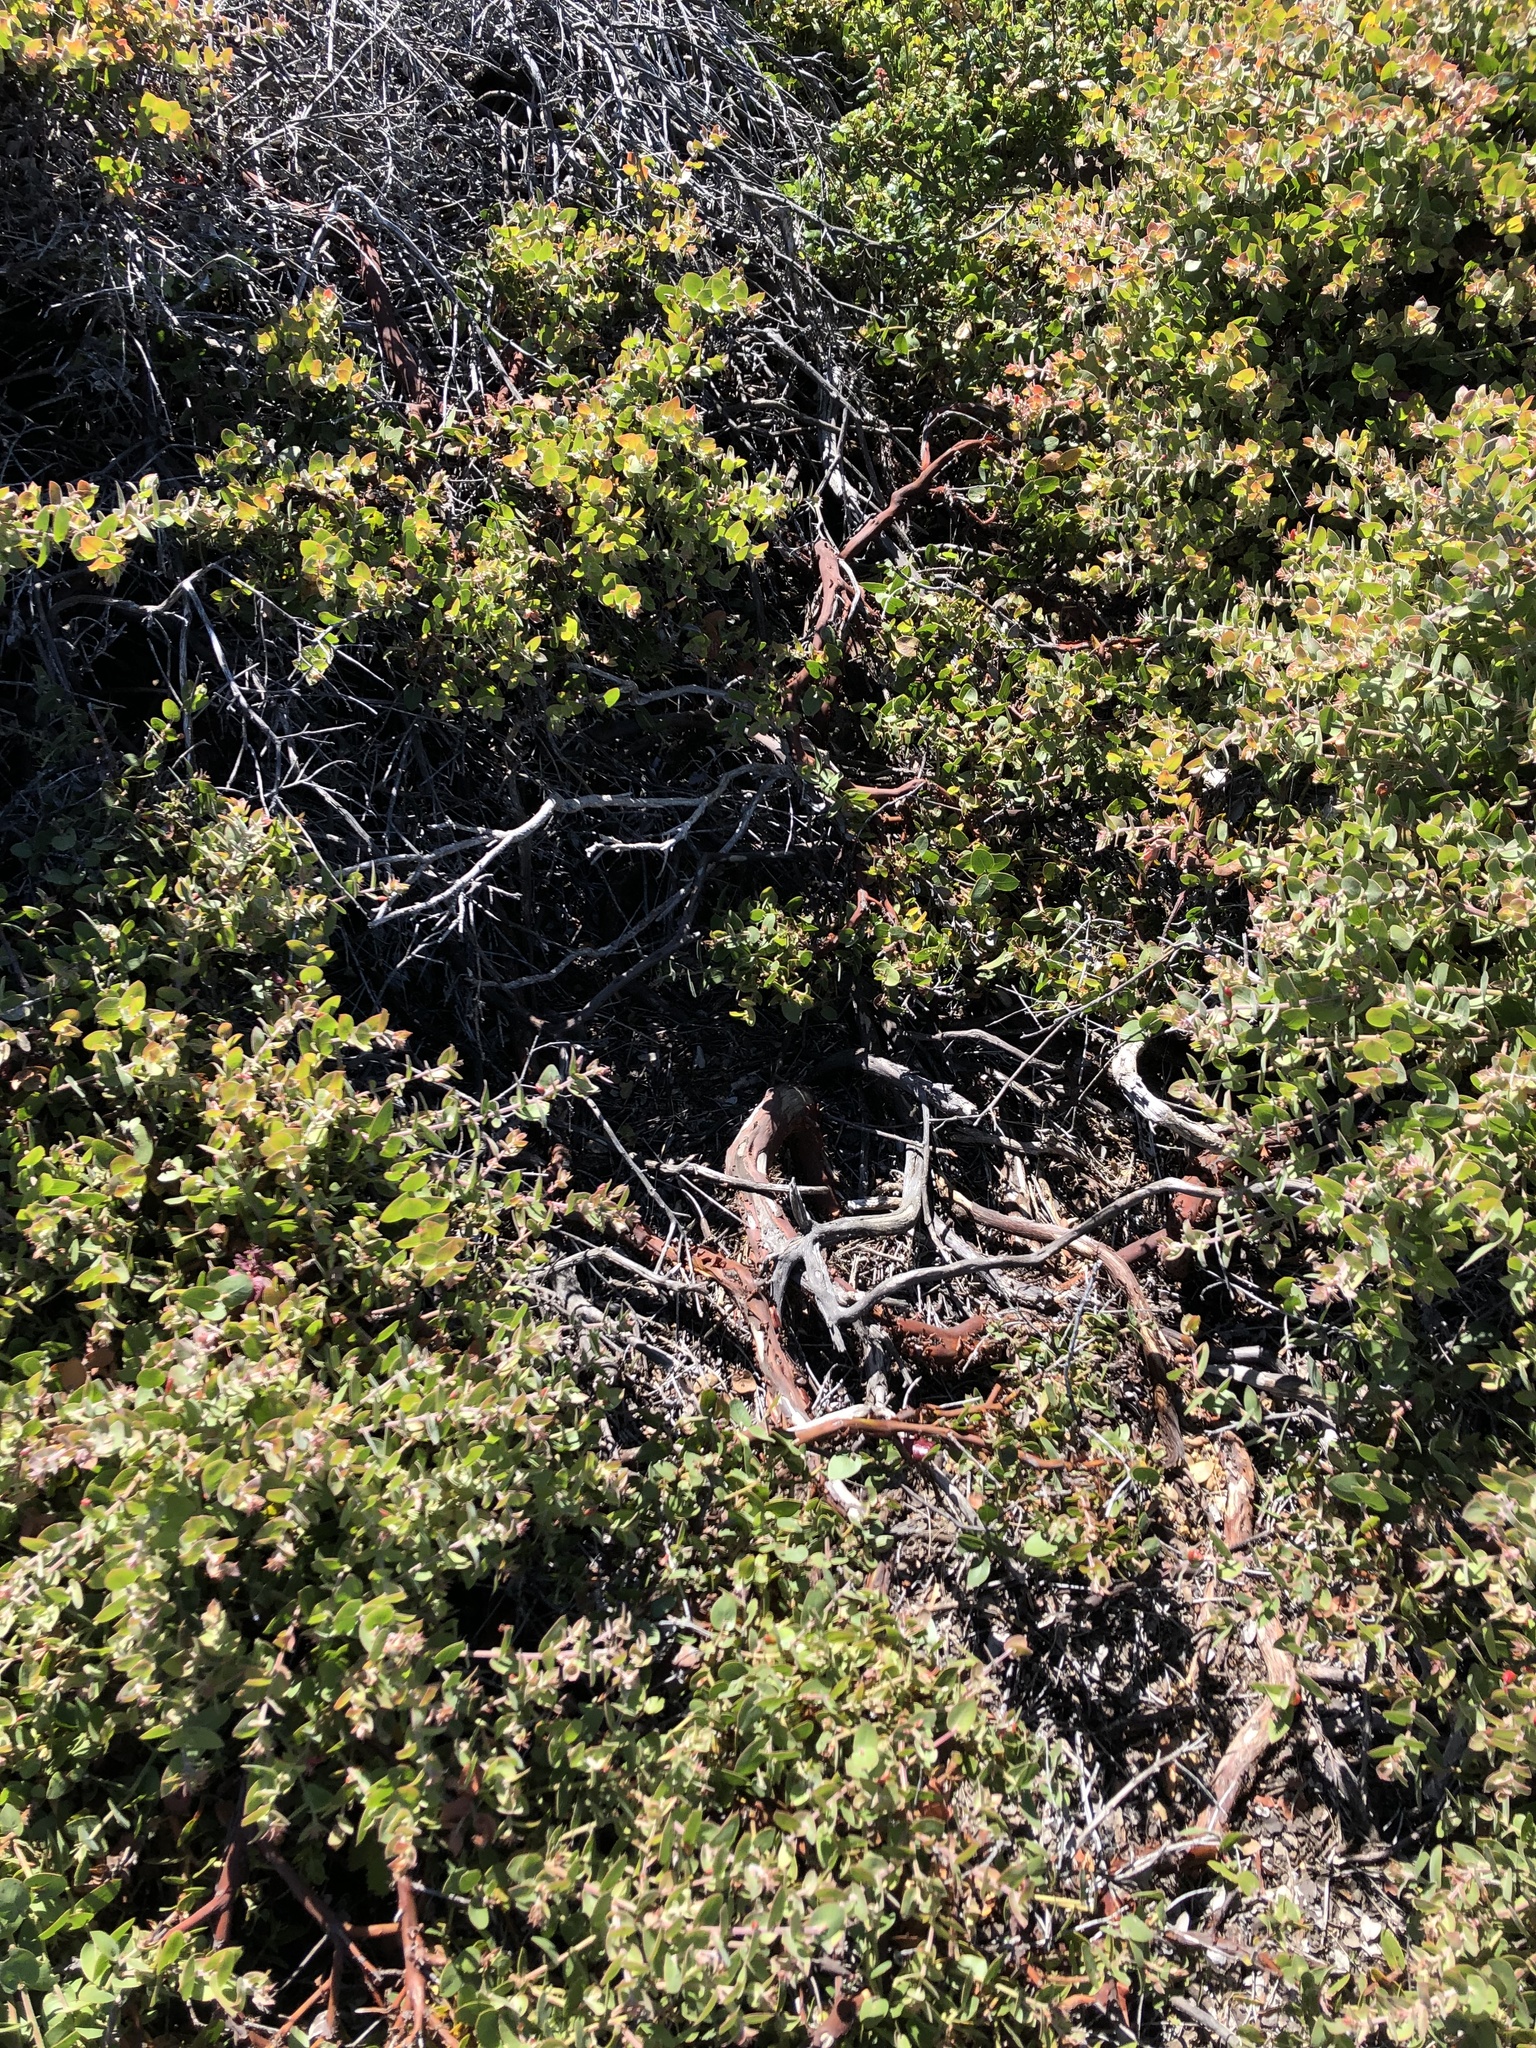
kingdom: Plantae
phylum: Tracheophyta
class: Magnoliopsida
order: Ericales
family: Ericaceae
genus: Arctostaphylos
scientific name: Arctostaphylos cruzensis
